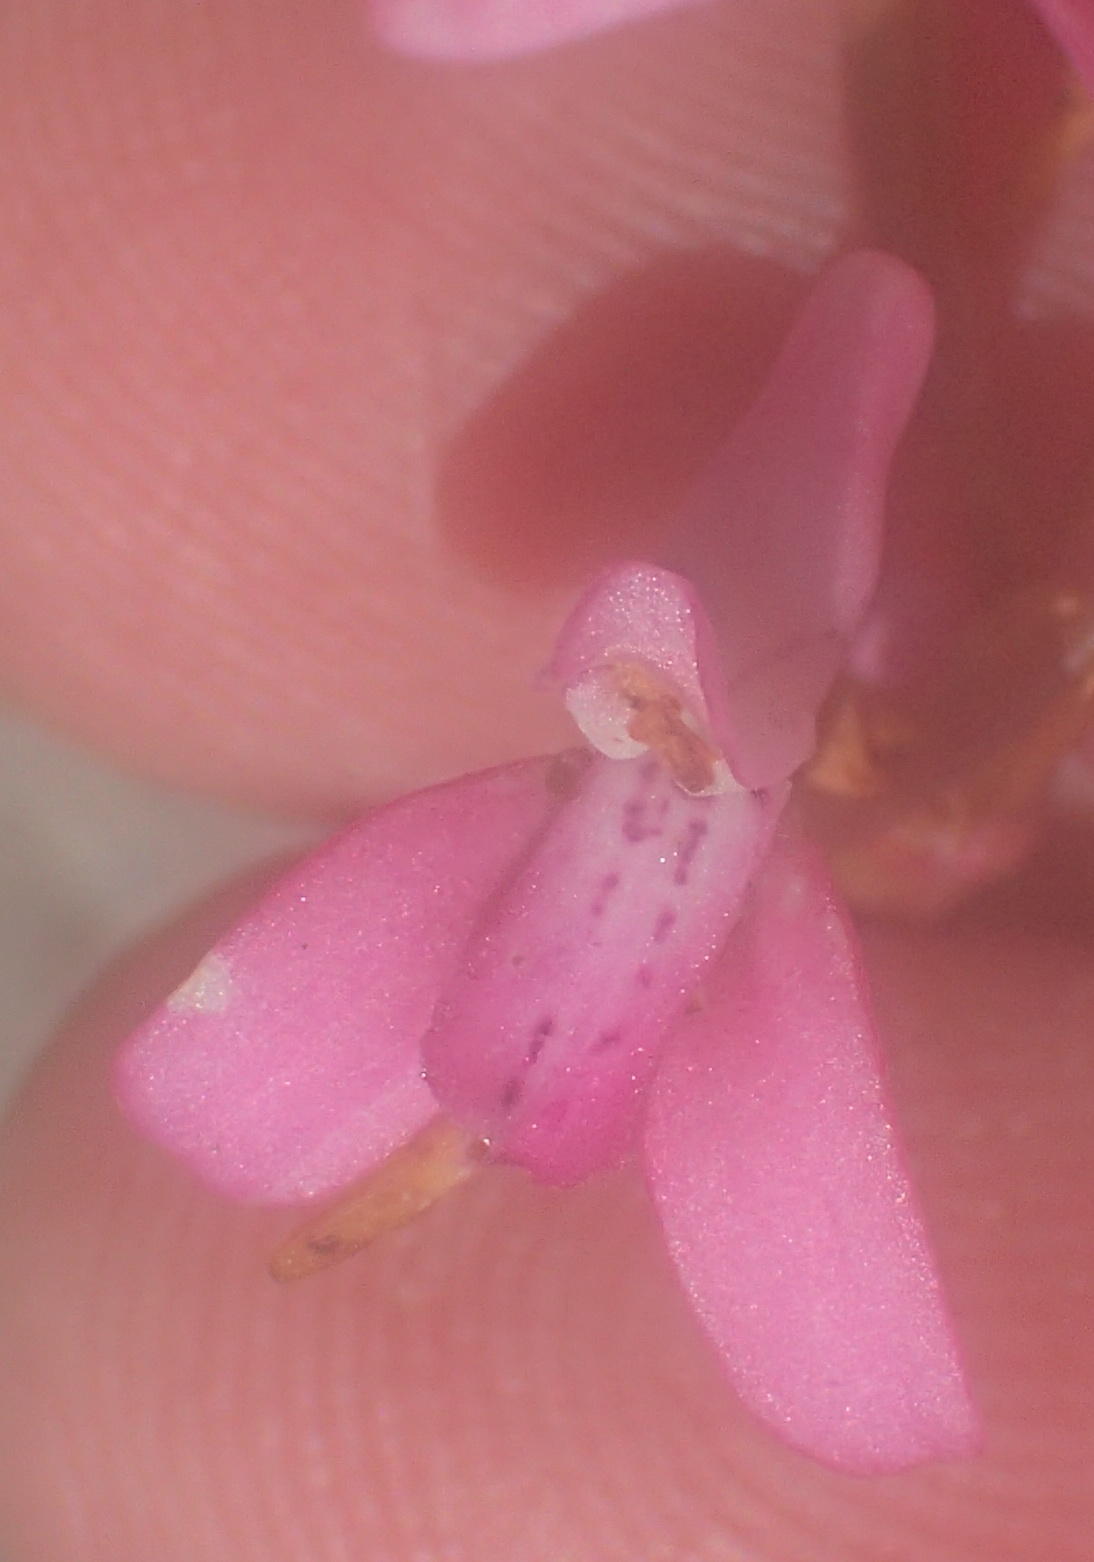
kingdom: Plantae
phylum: Tracheophyta
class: Liliopsida
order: Asparagales
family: Orchidaceae
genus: Disa
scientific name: Disa inflexa
